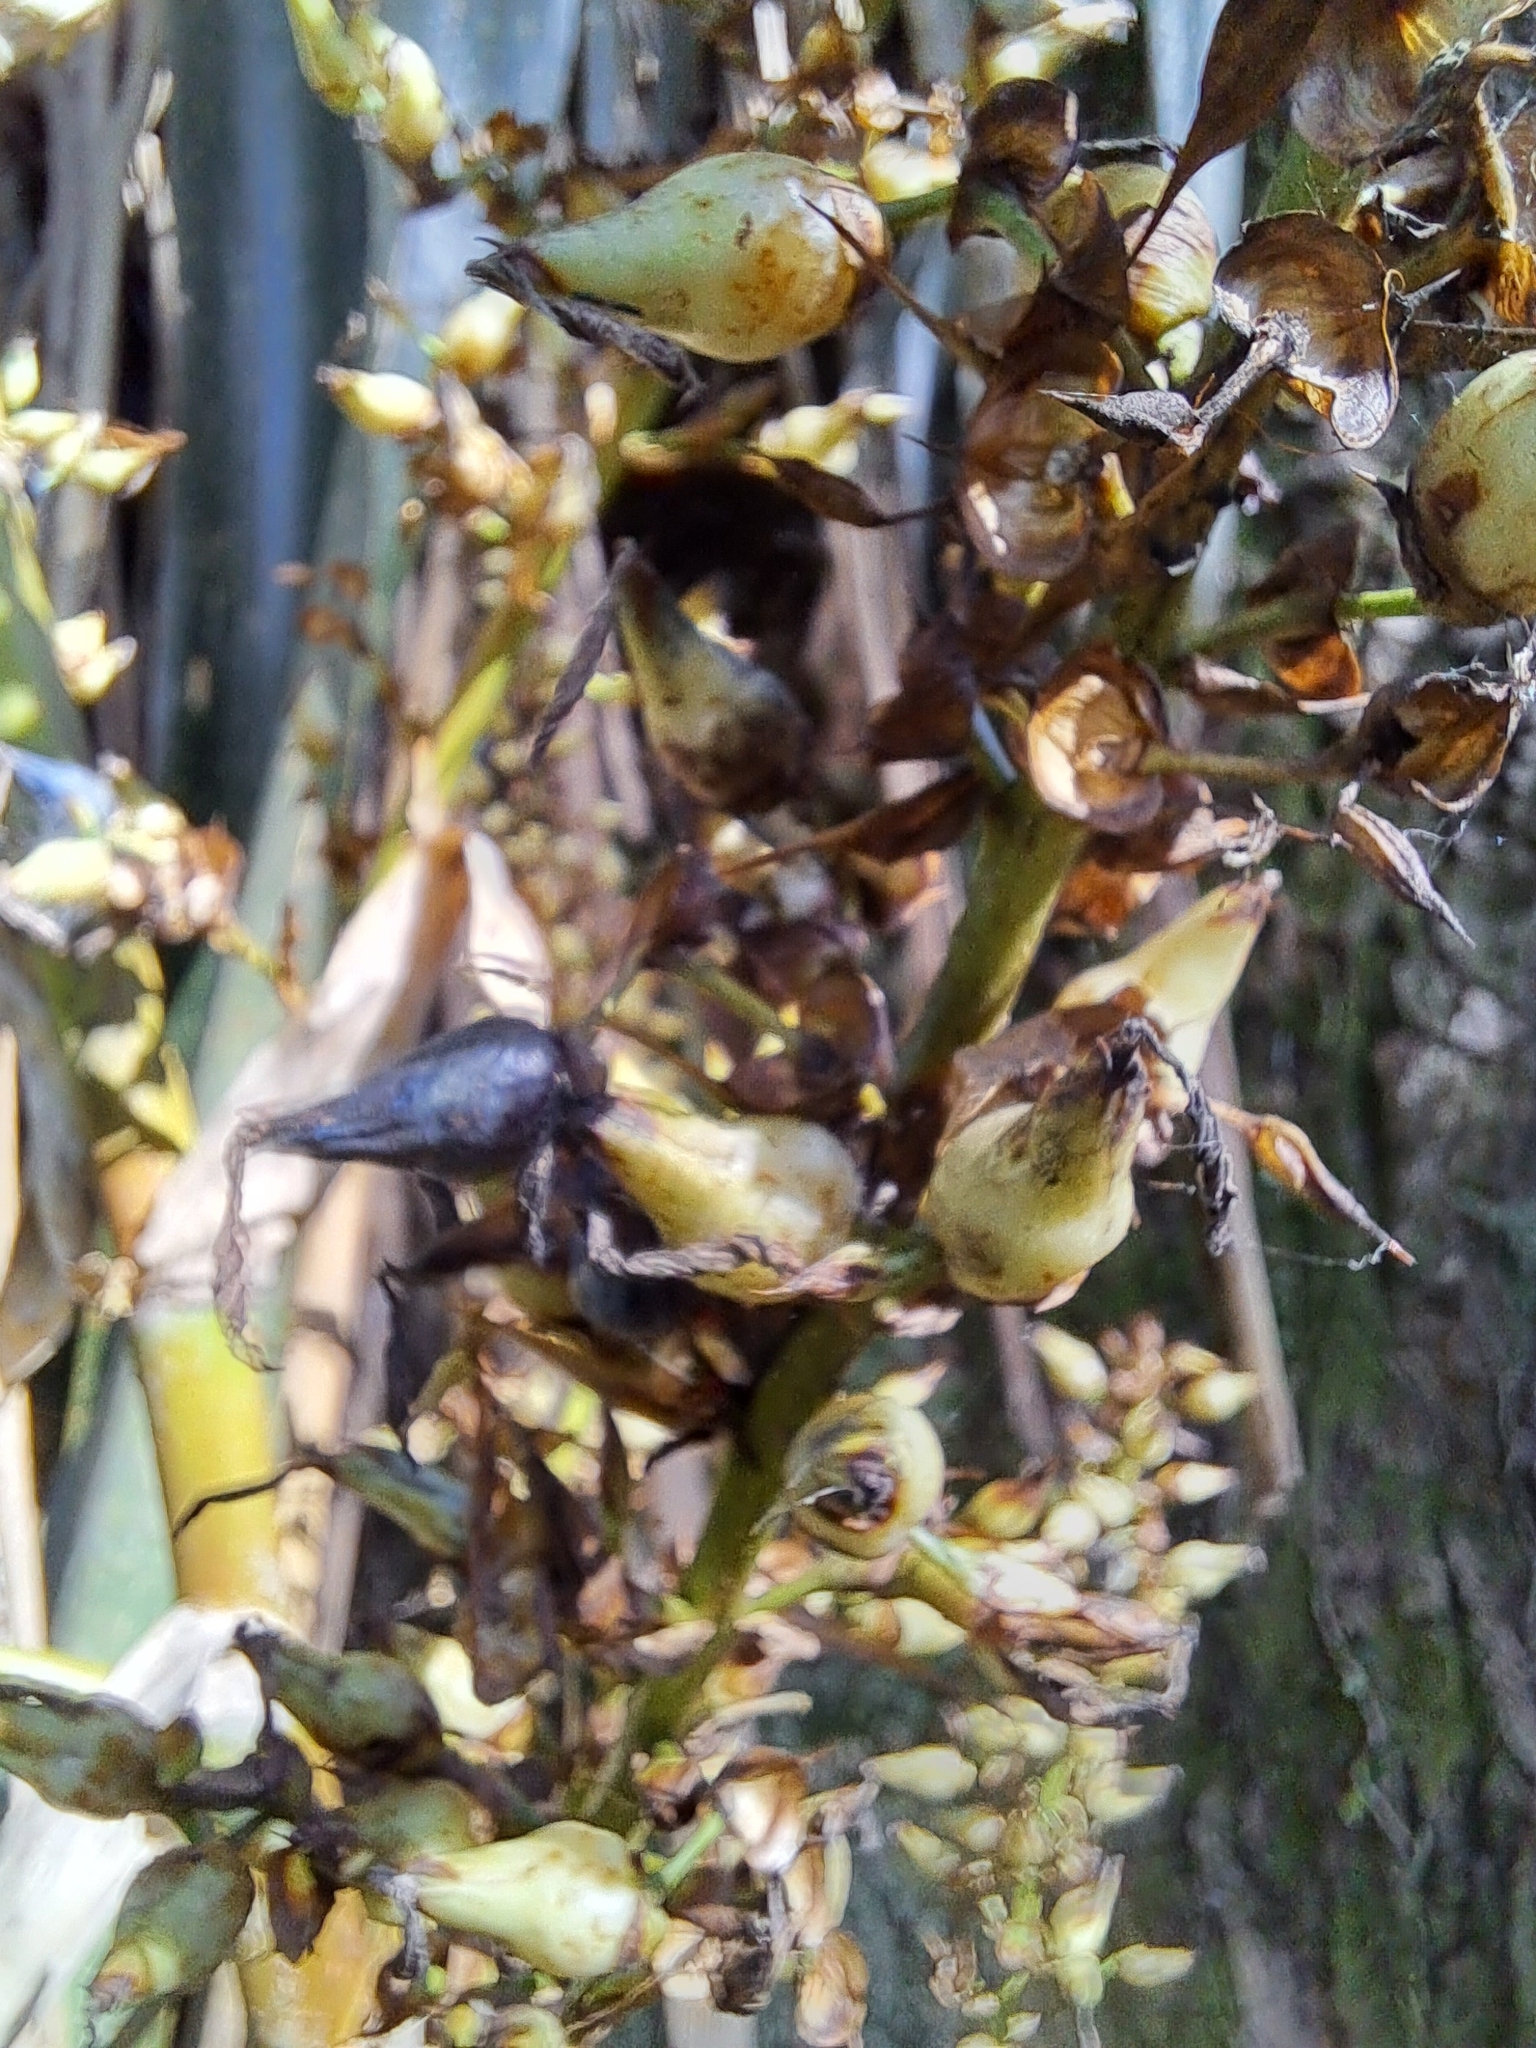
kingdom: Plantae
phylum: Tracheophyta
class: Liliopsida
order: Poales
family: Bromeliaceae
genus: Aechmea
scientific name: Aechmea floribunda
